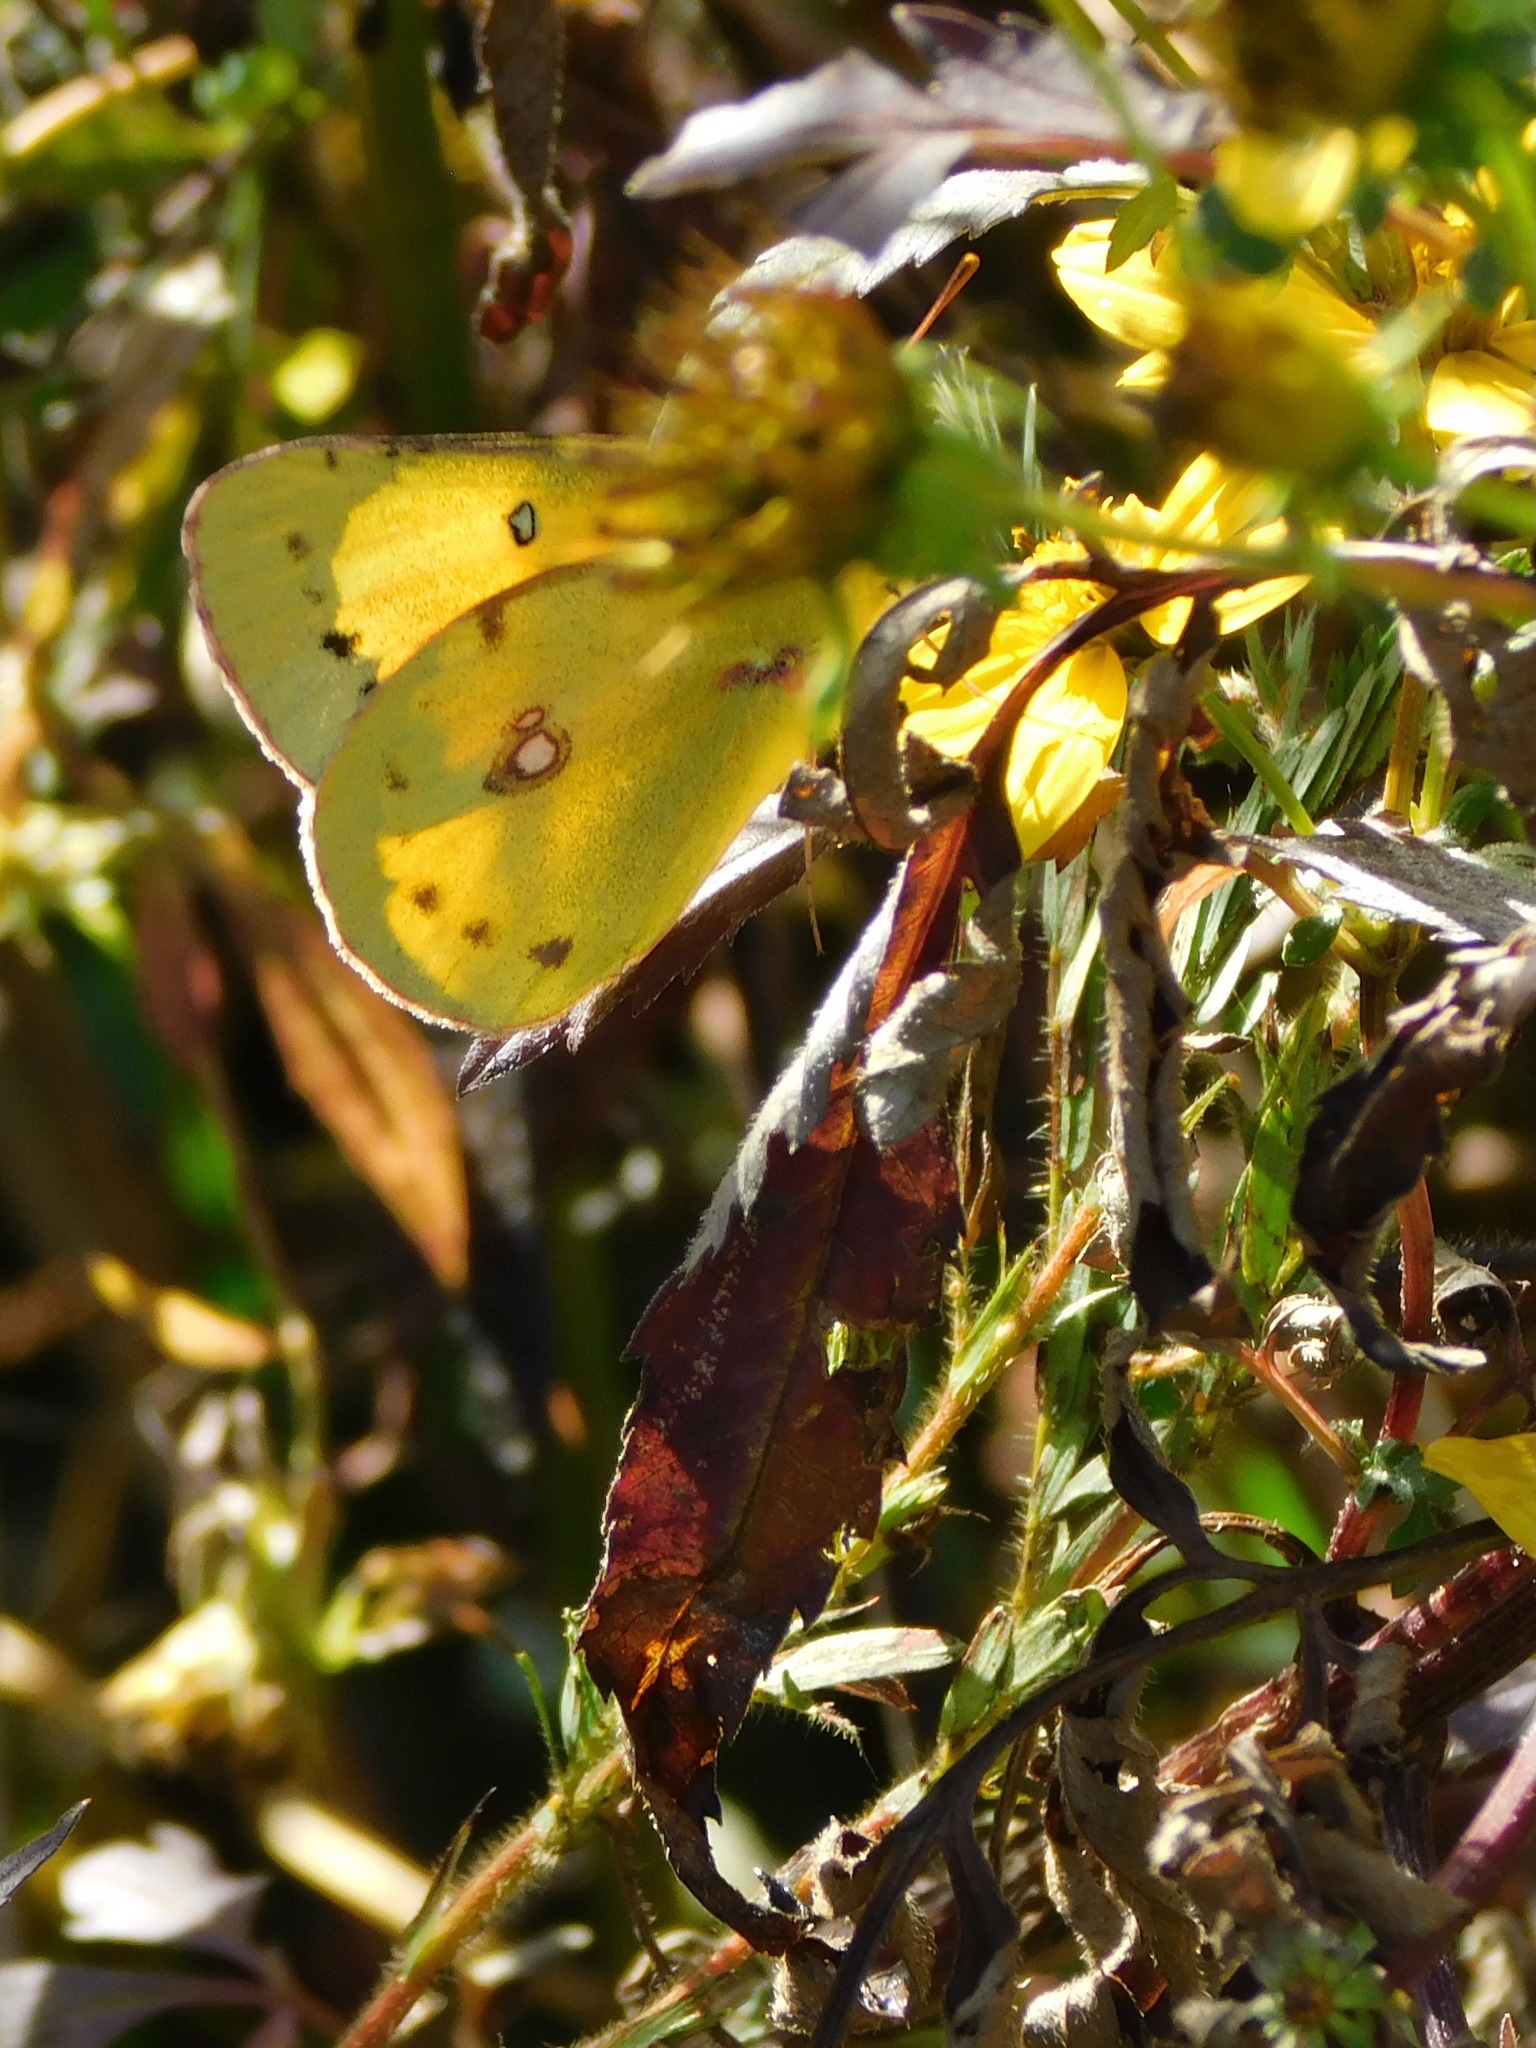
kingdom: Animalia
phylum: Arthropoda
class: Insecta
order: Lepidoptera
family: Pieridae
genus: Colias
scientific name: Colias philodice
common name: Clouded sulphur
